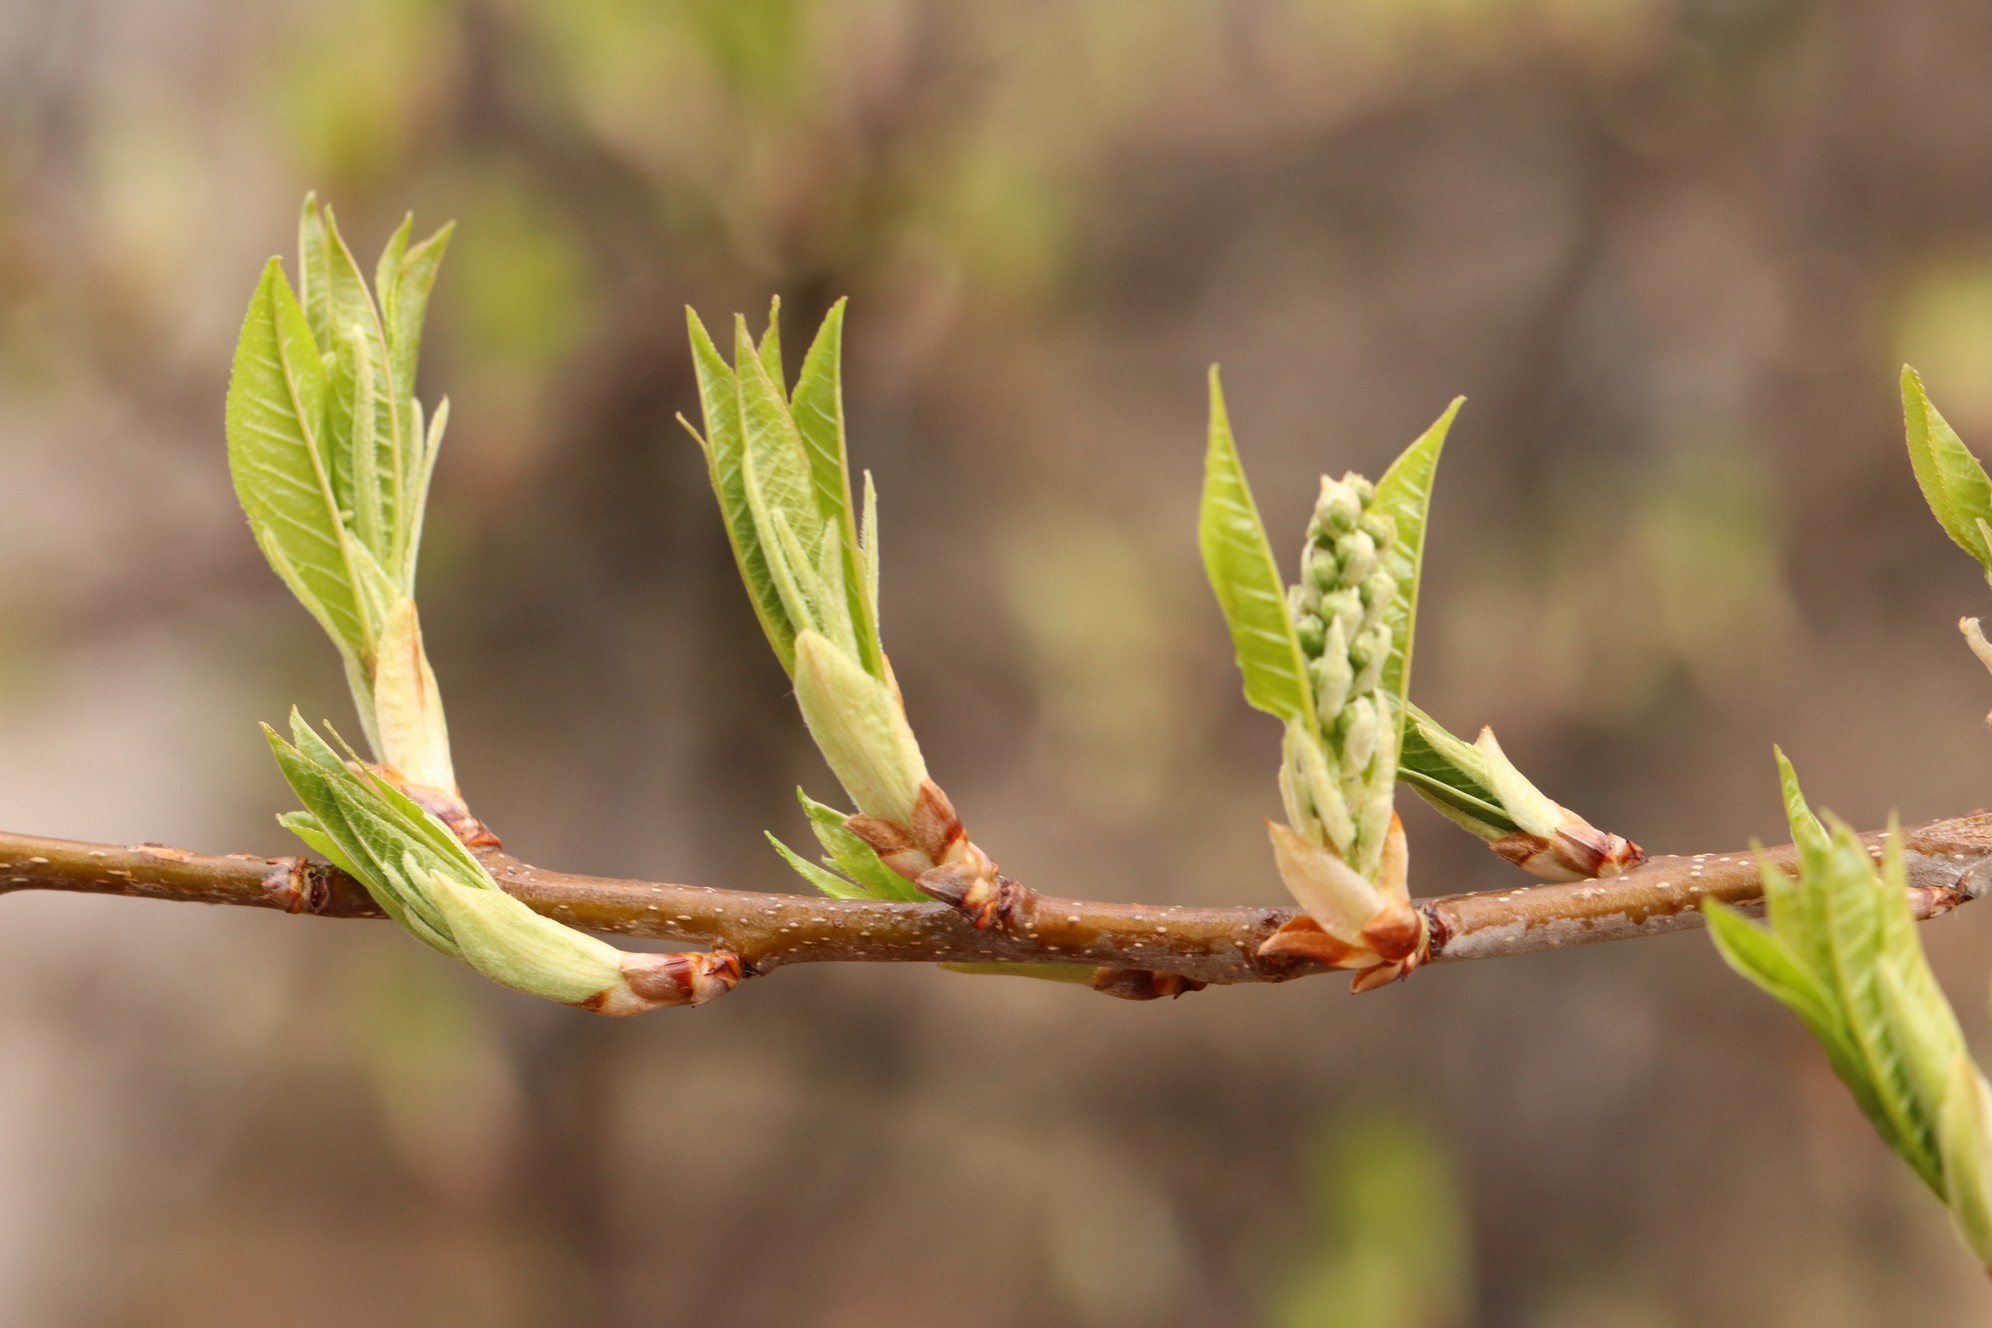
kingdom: Plantae
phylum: Tracheophyta
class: Magnoliopsida
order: Rosales
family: Rosaceae
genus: Prunus
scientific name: Prunus padus
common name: Bird cherry
